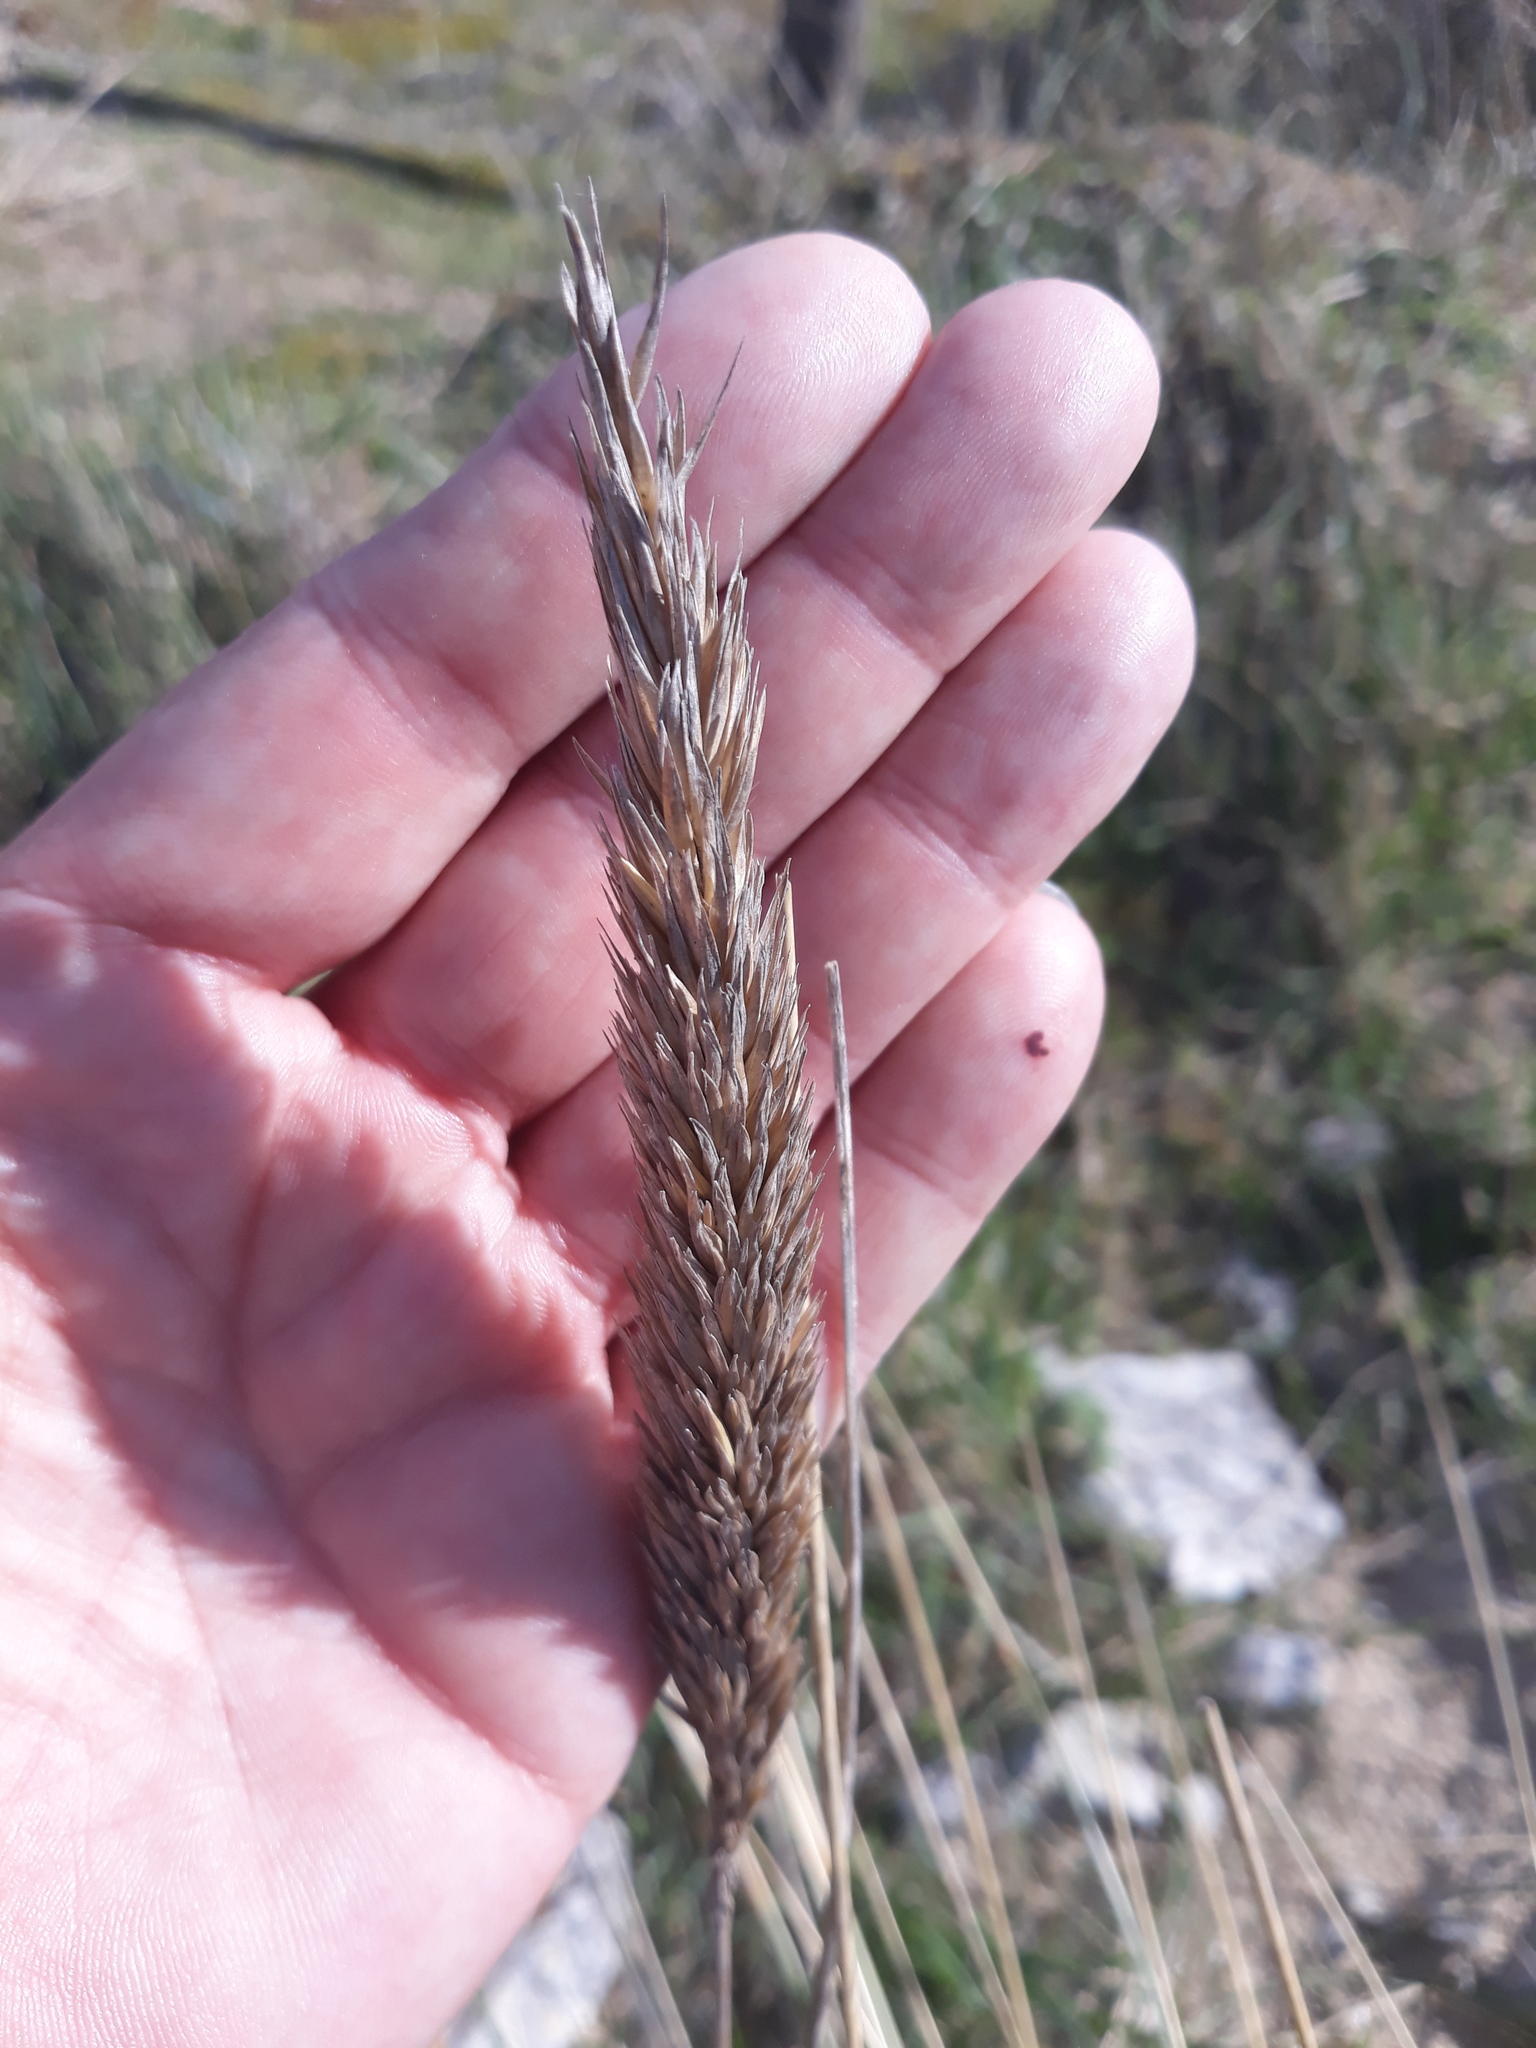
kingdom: Plantae
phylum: Tracheophyta
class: Liliopsida
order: Poales
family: Poaceae
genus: Calamagrostis
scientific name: Calamagrostis arenaria
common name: European beachgrass
